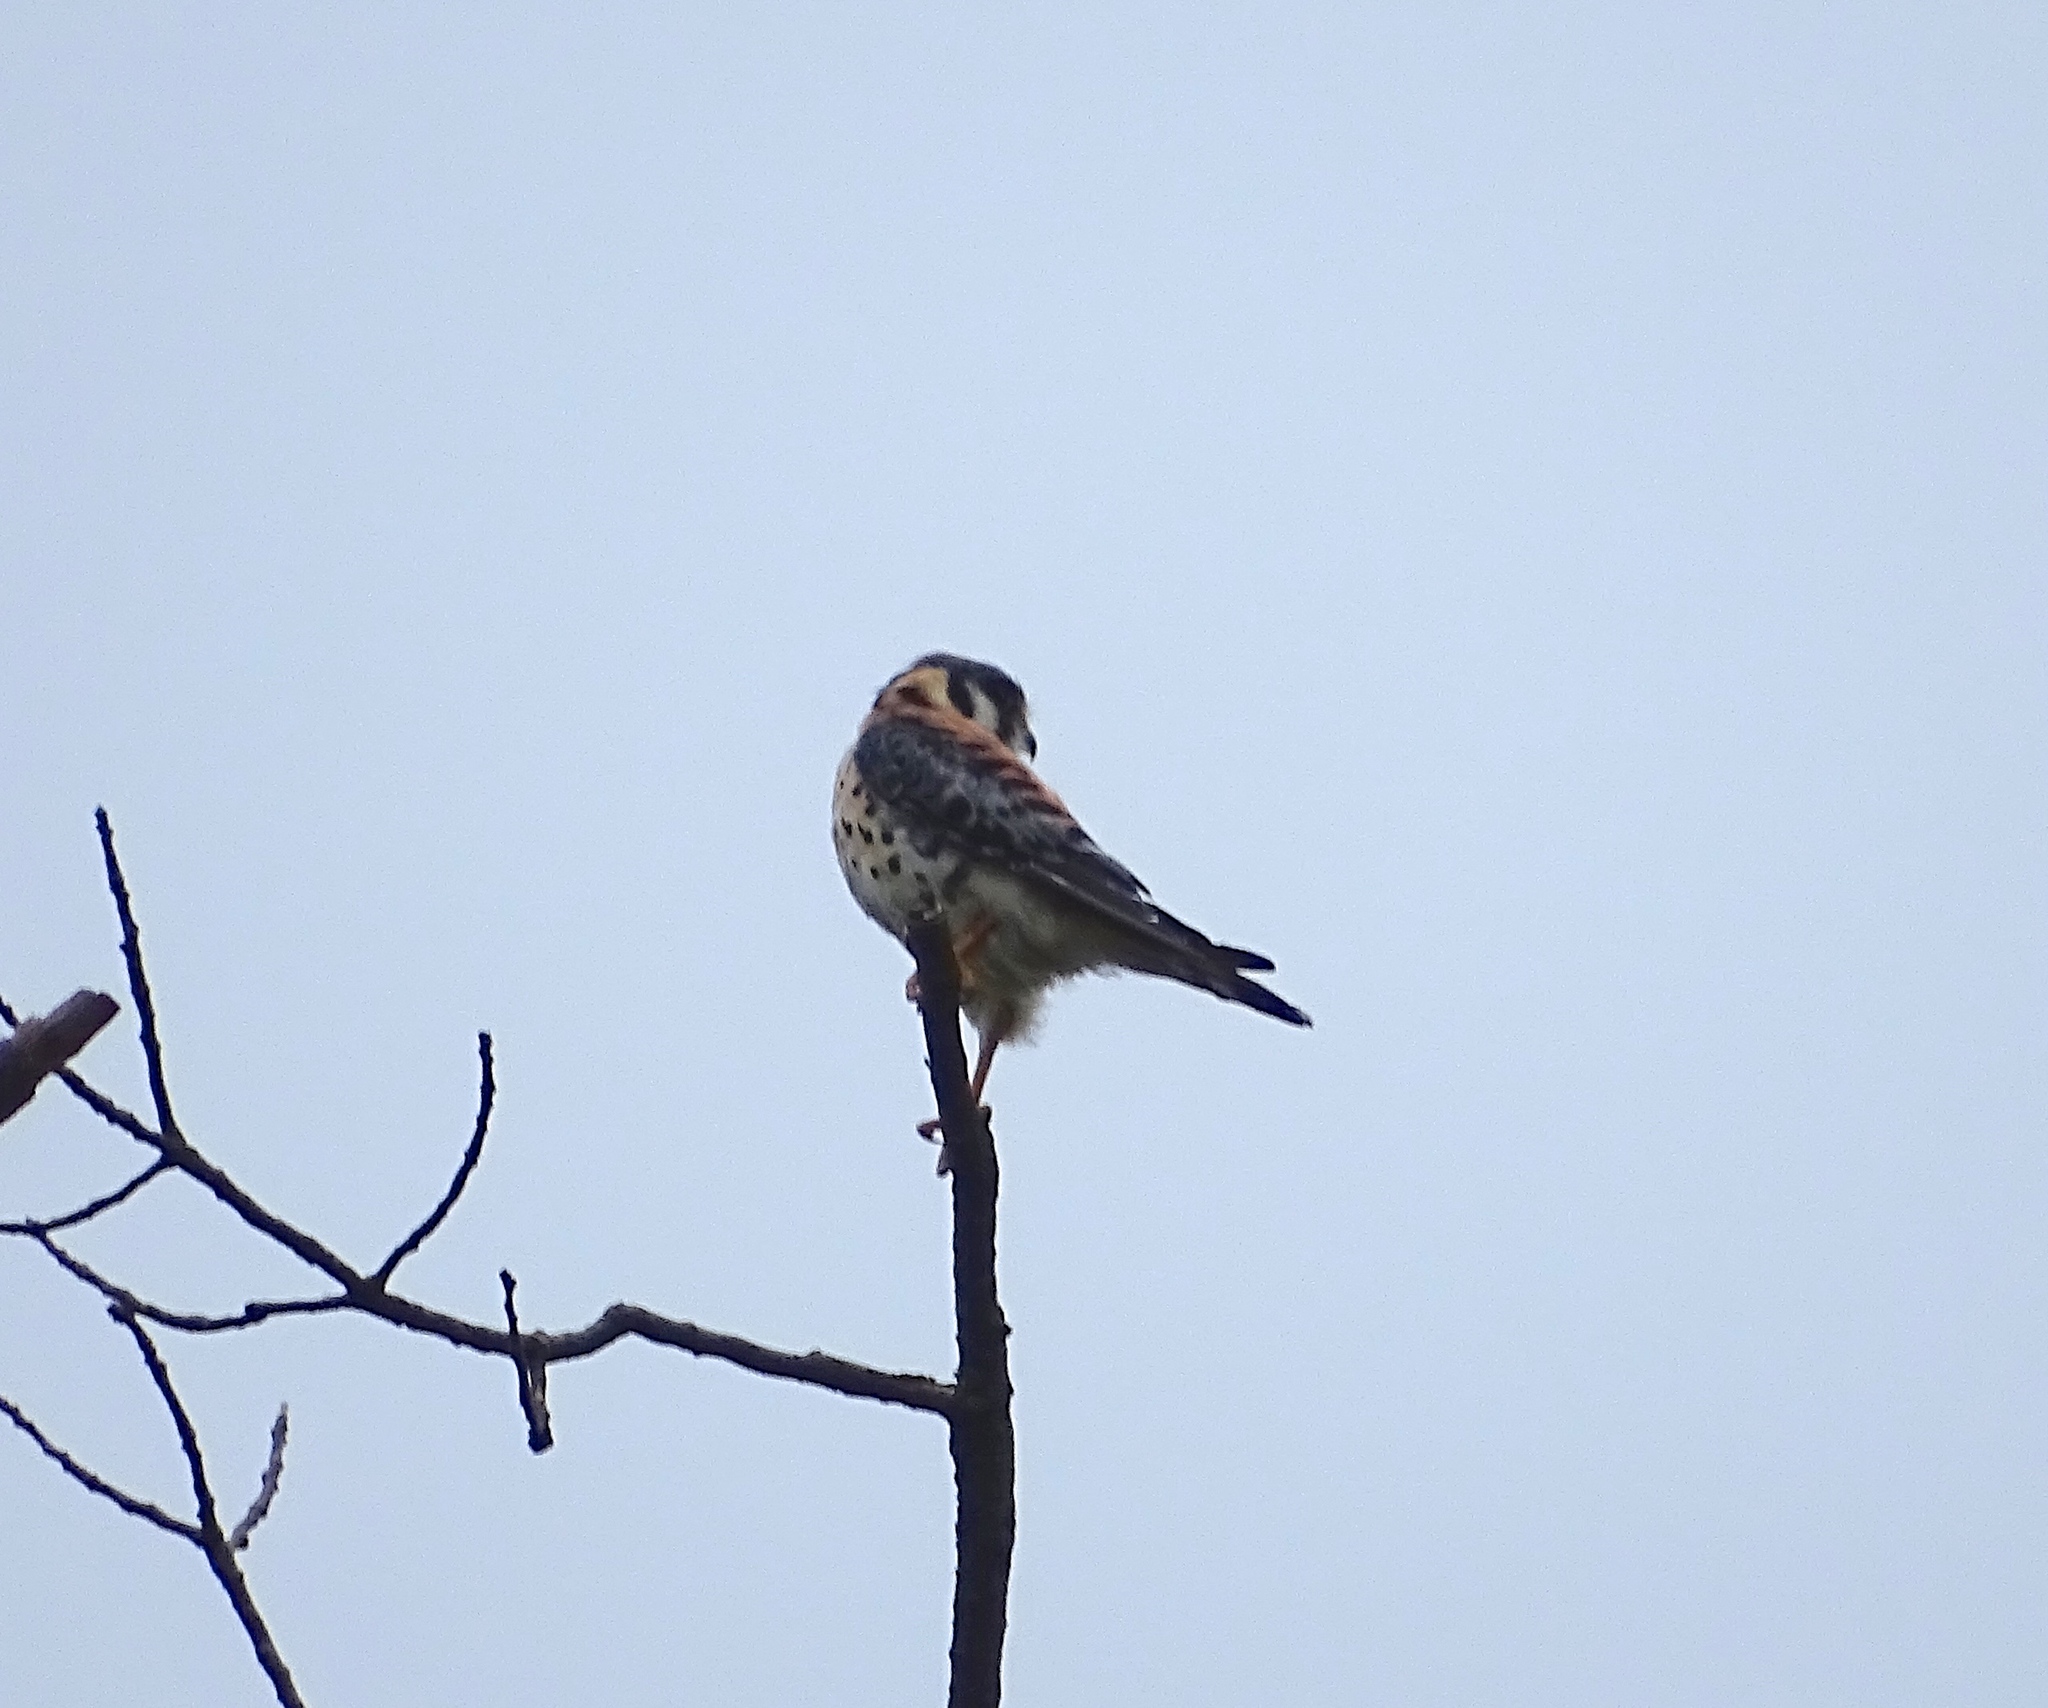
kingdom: Animalia
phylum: Chordata
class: Aves
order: Falconiformes
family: Falconidae
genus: Falco
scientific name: Falco sparverius
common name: American kestrel
